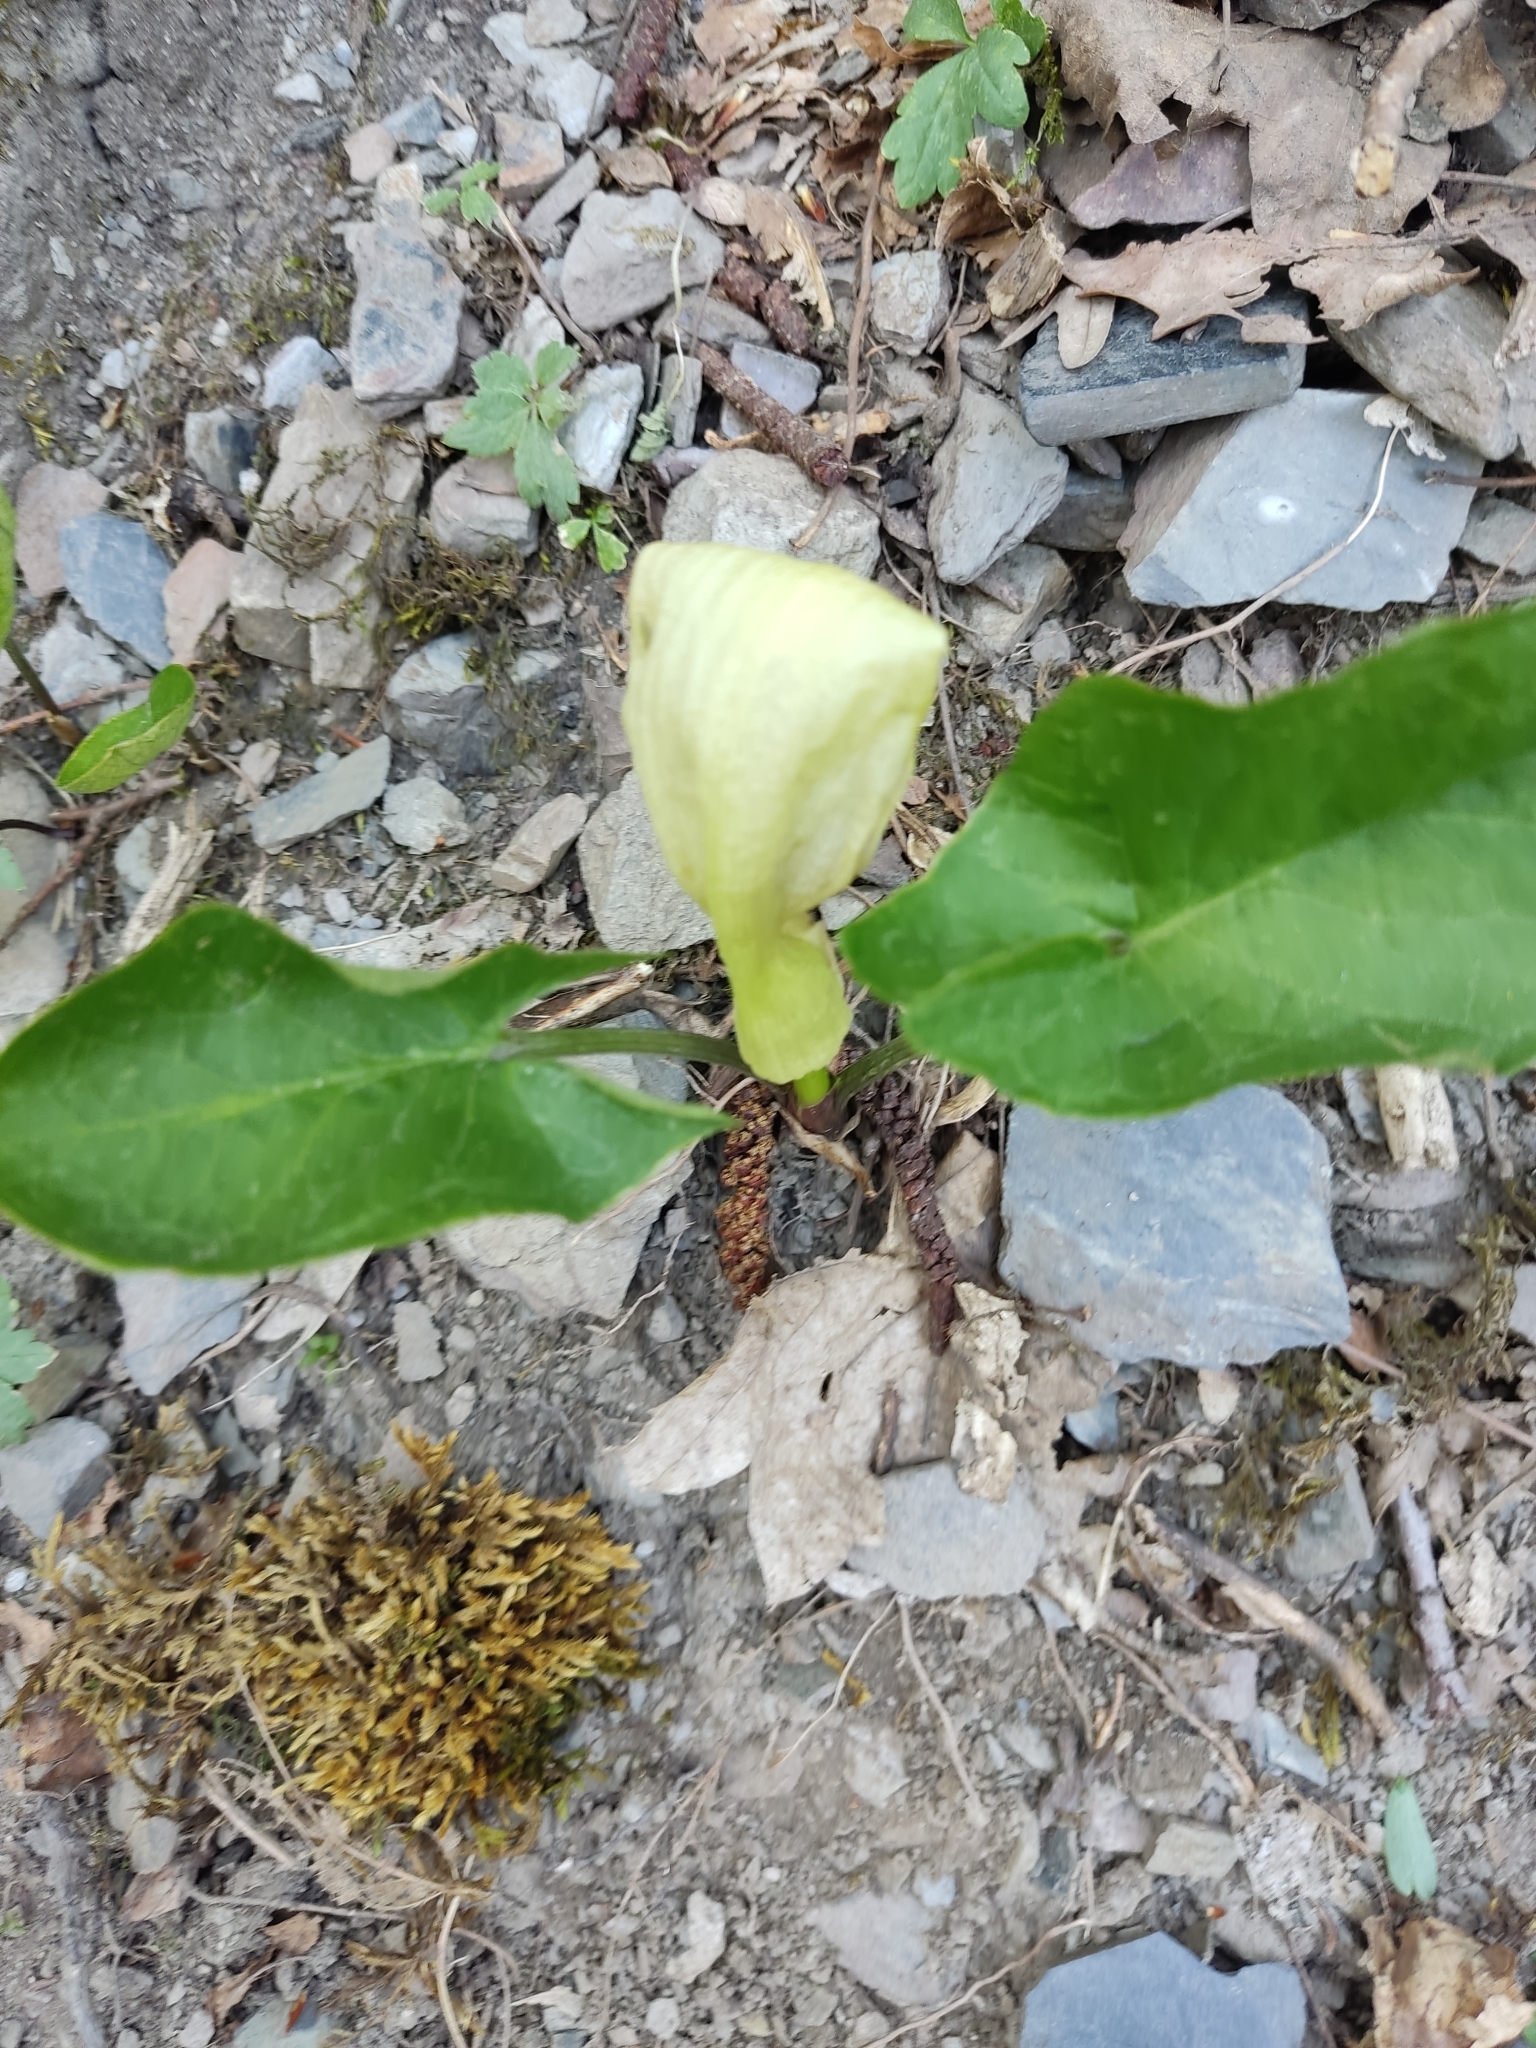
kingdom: Plantae
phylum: Tracheophyta
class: Liliopsida
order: Alismatales
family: Araceae
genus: Arum
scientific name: Arum orientale
